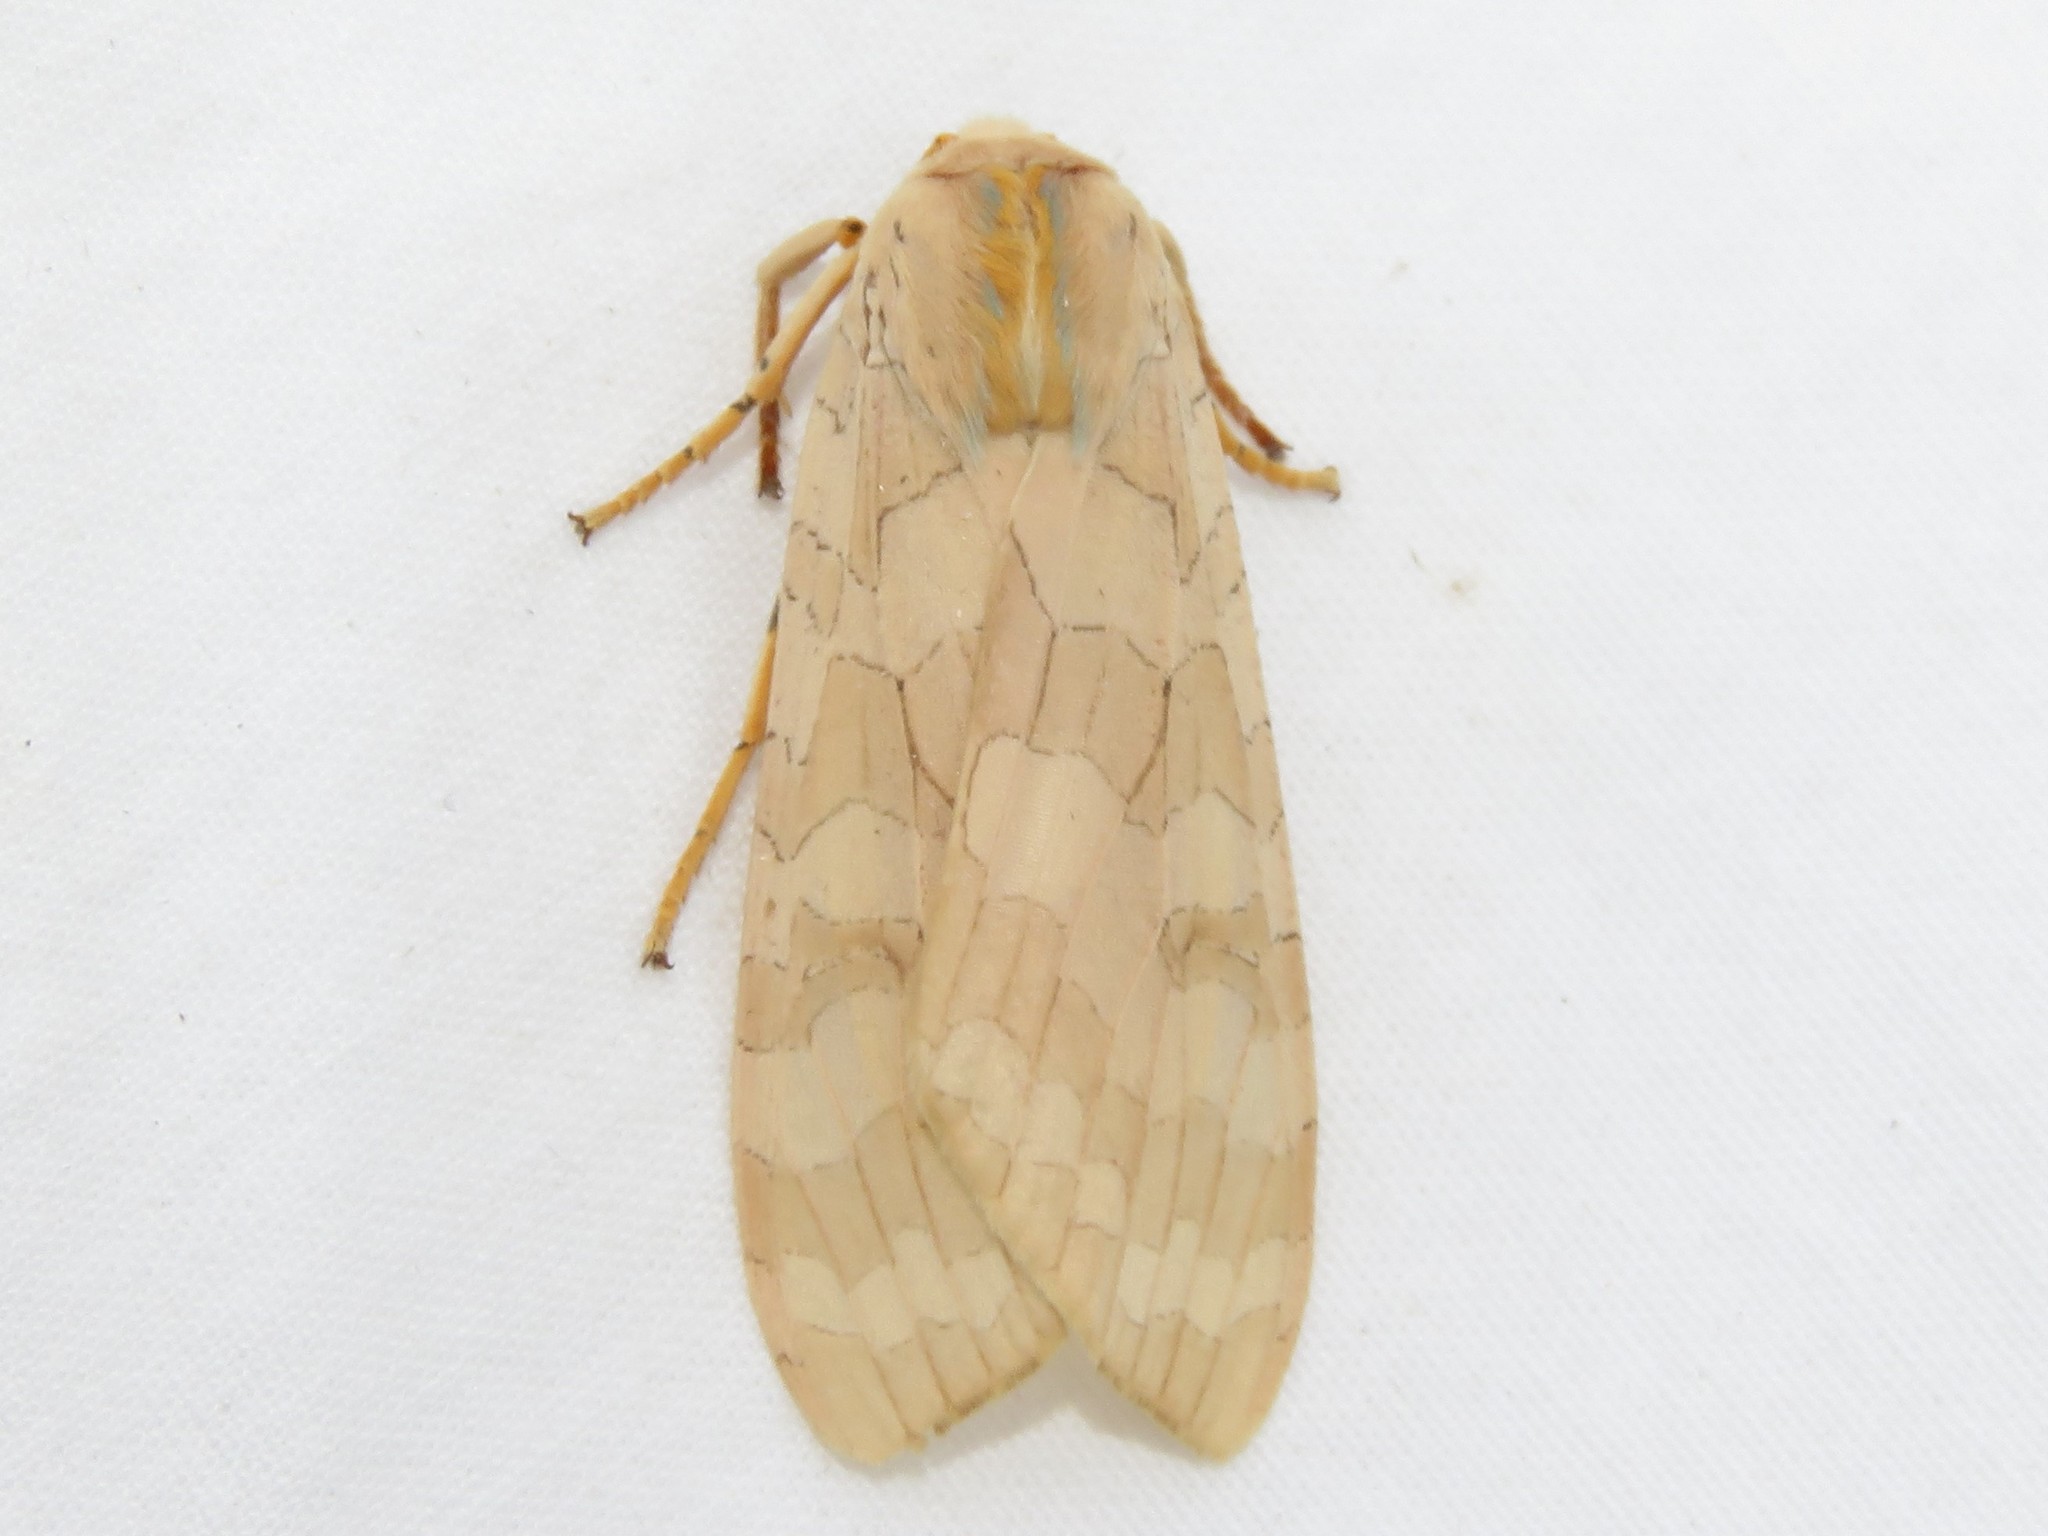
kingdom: Animalia
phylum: Arthropoda
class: Insecta
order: Lepidoptera
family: Erebidae
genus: Halysidota
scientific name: Halysidota tessellaris
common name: Banded tussock moth
